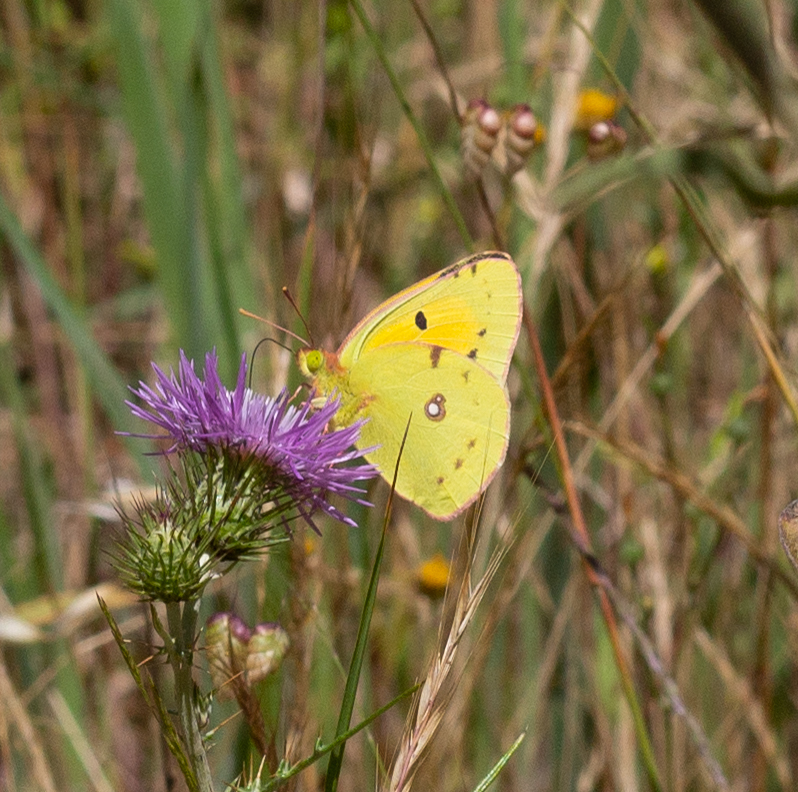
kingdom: Animalia
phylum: Arthropoda
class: Insecta
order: Lepidoptera
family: Pieridae
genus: Colias
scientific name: Colias croceus
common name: Clouded yellow
